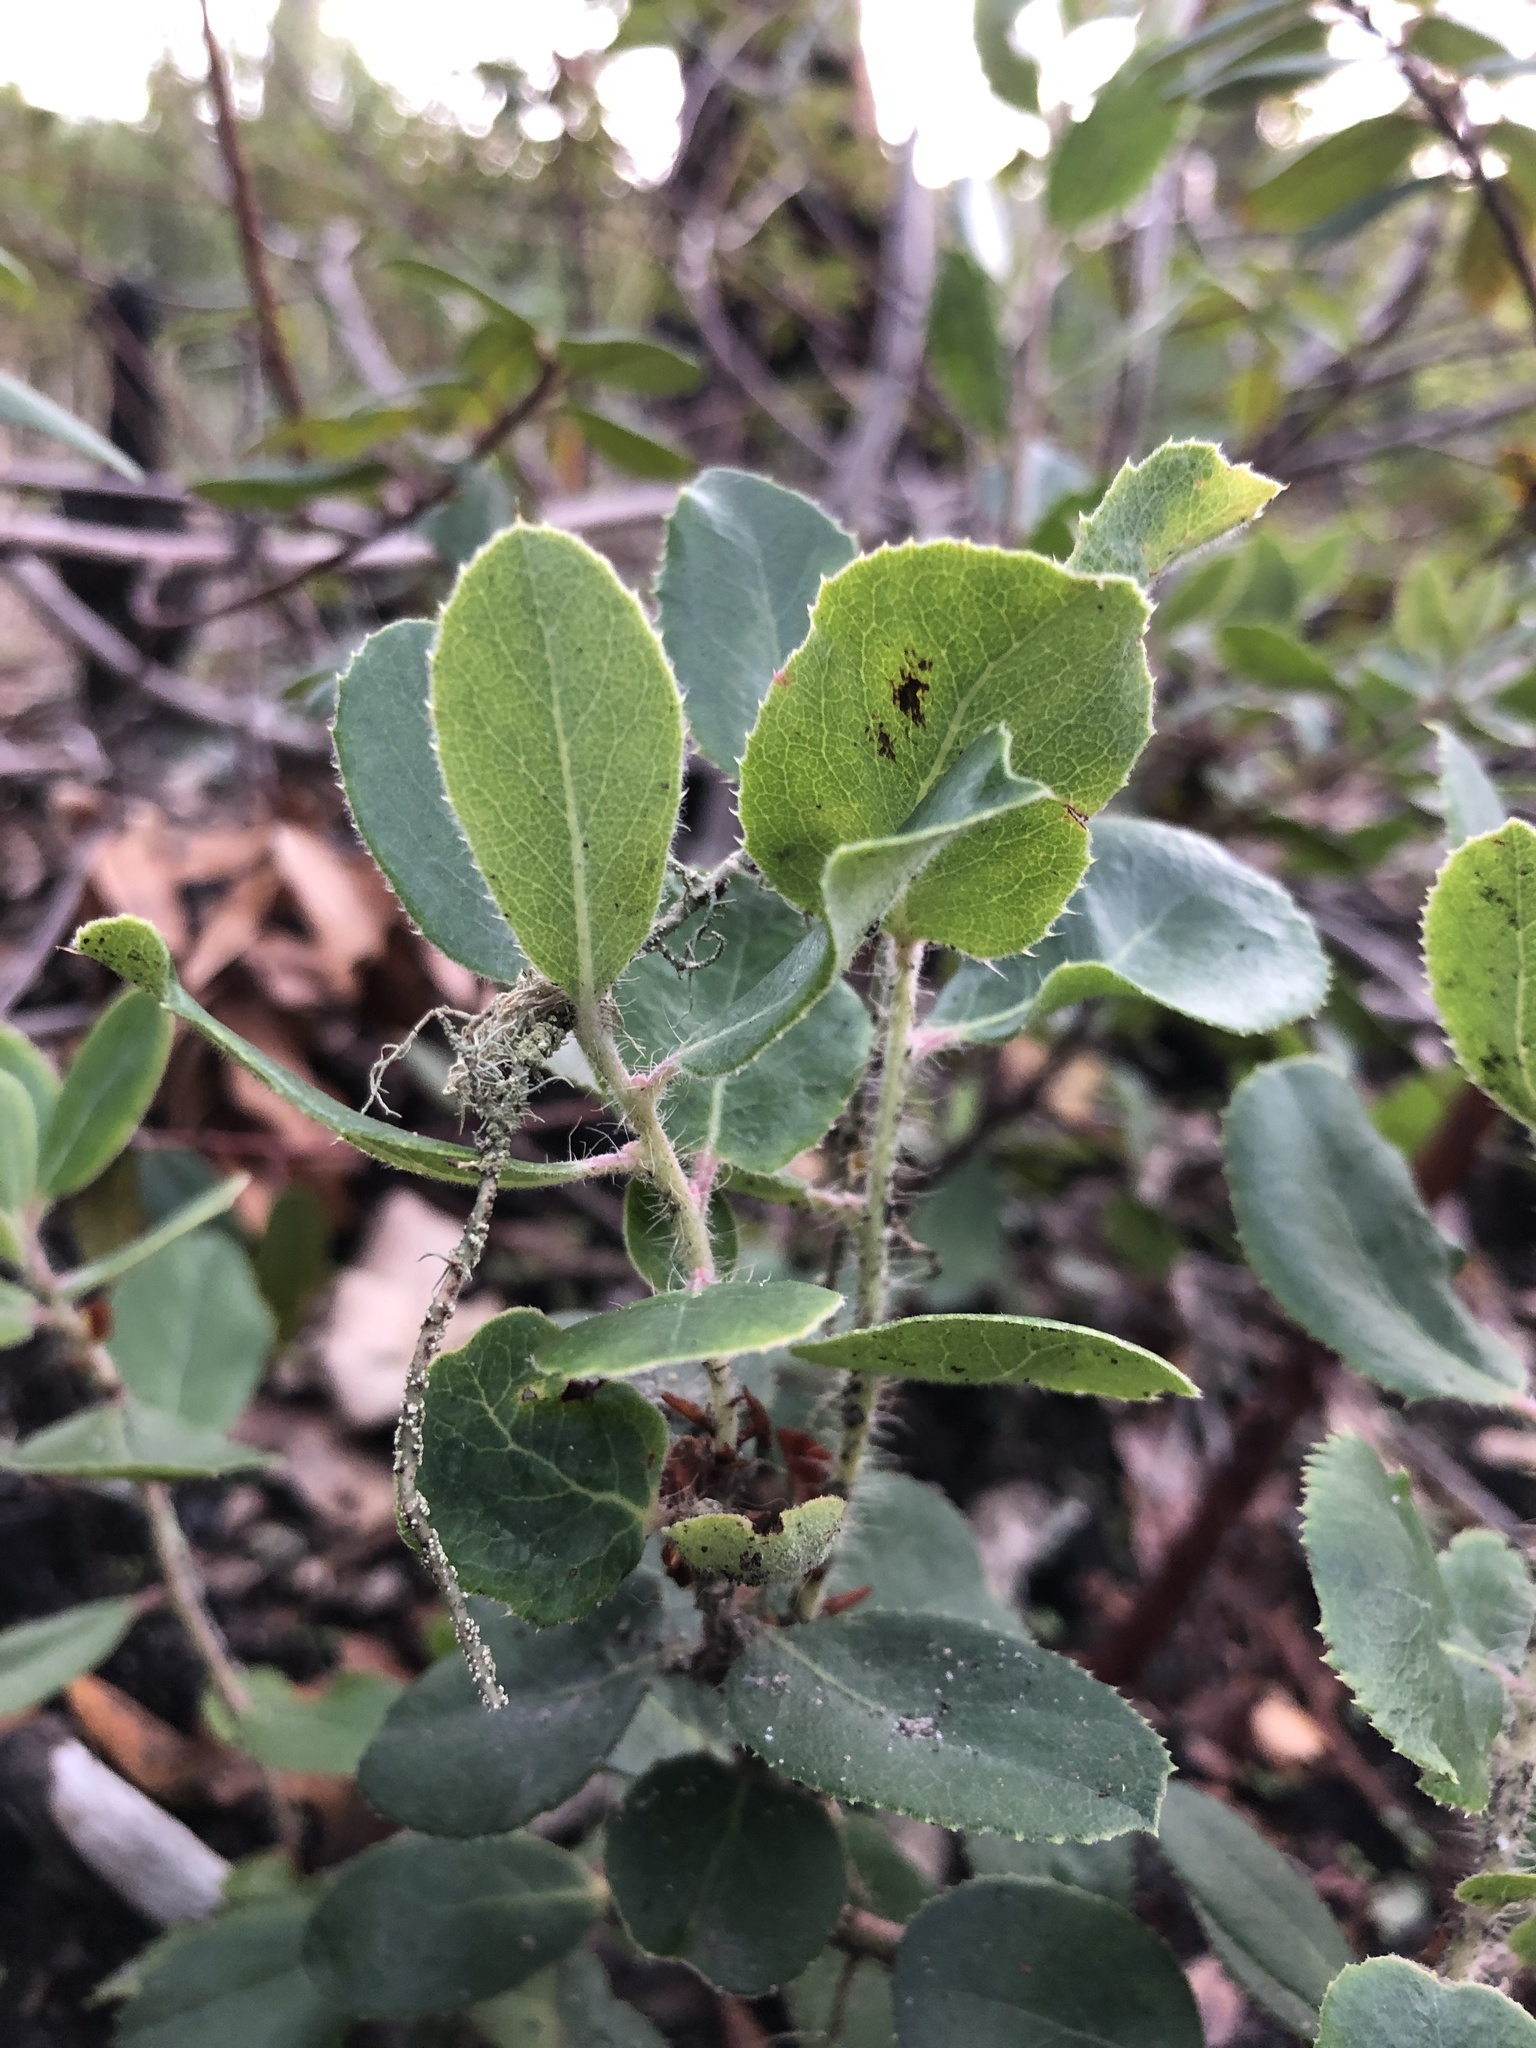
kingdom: Plantae
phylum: Tracheophyta
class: Magnoliopsida
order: Ericales
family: Ericaceae
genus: Arctostaphylos
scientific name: Arctostaphylos crustacea
